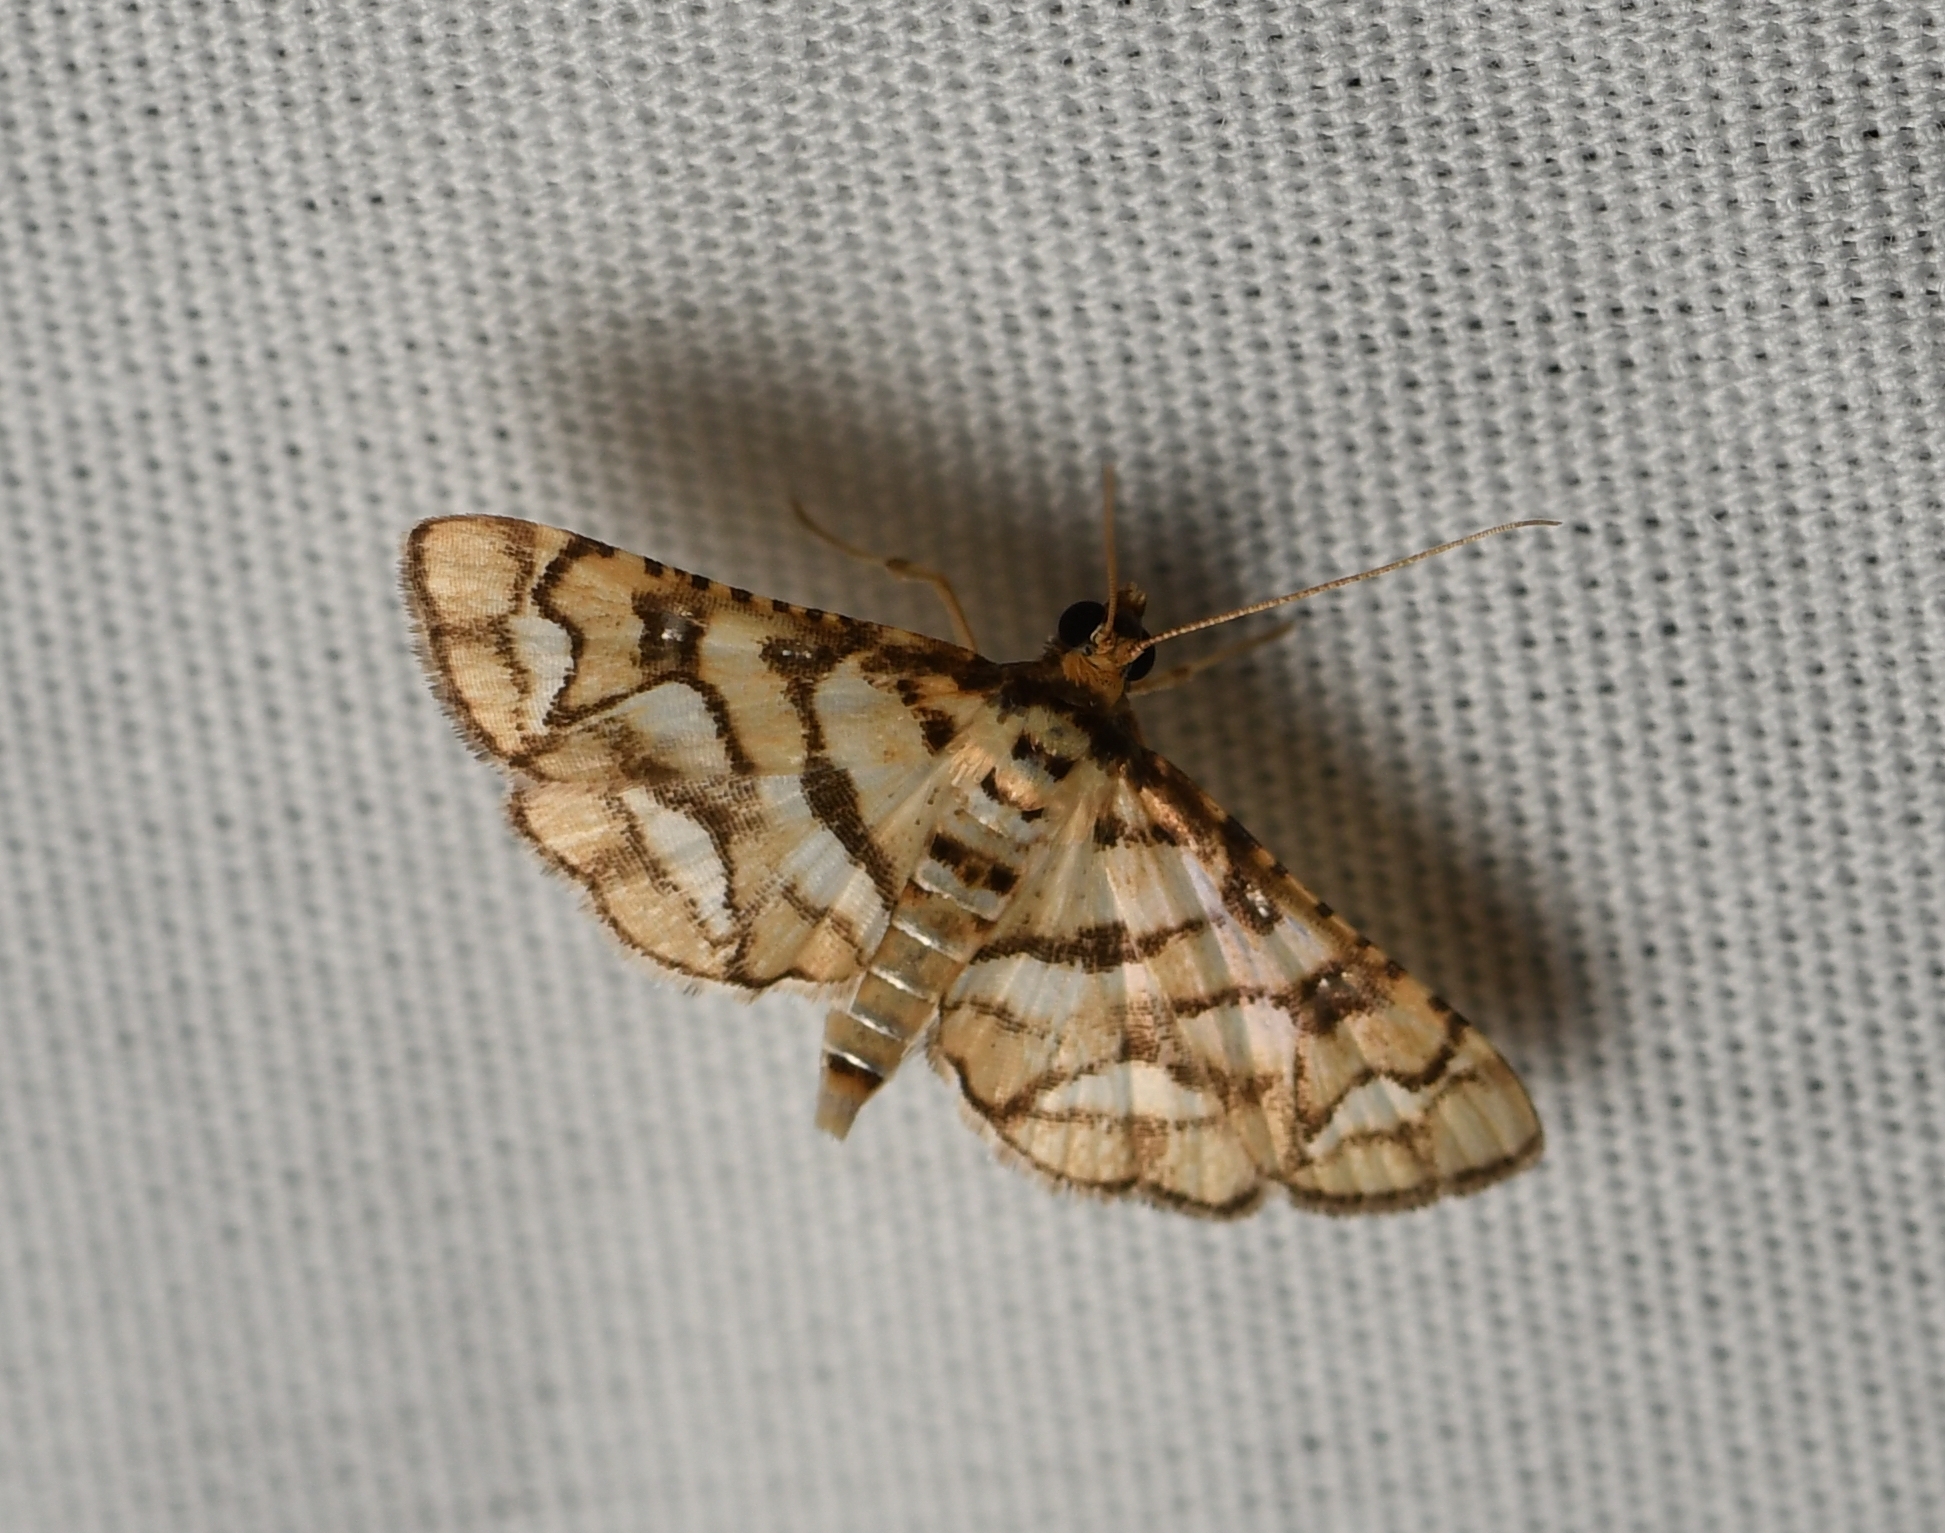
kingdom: Animalia
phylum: Arthropoda
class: Insecta
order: Lepidoptera
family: Crambidae
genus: Hileithia
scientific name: Hileithia magualis
